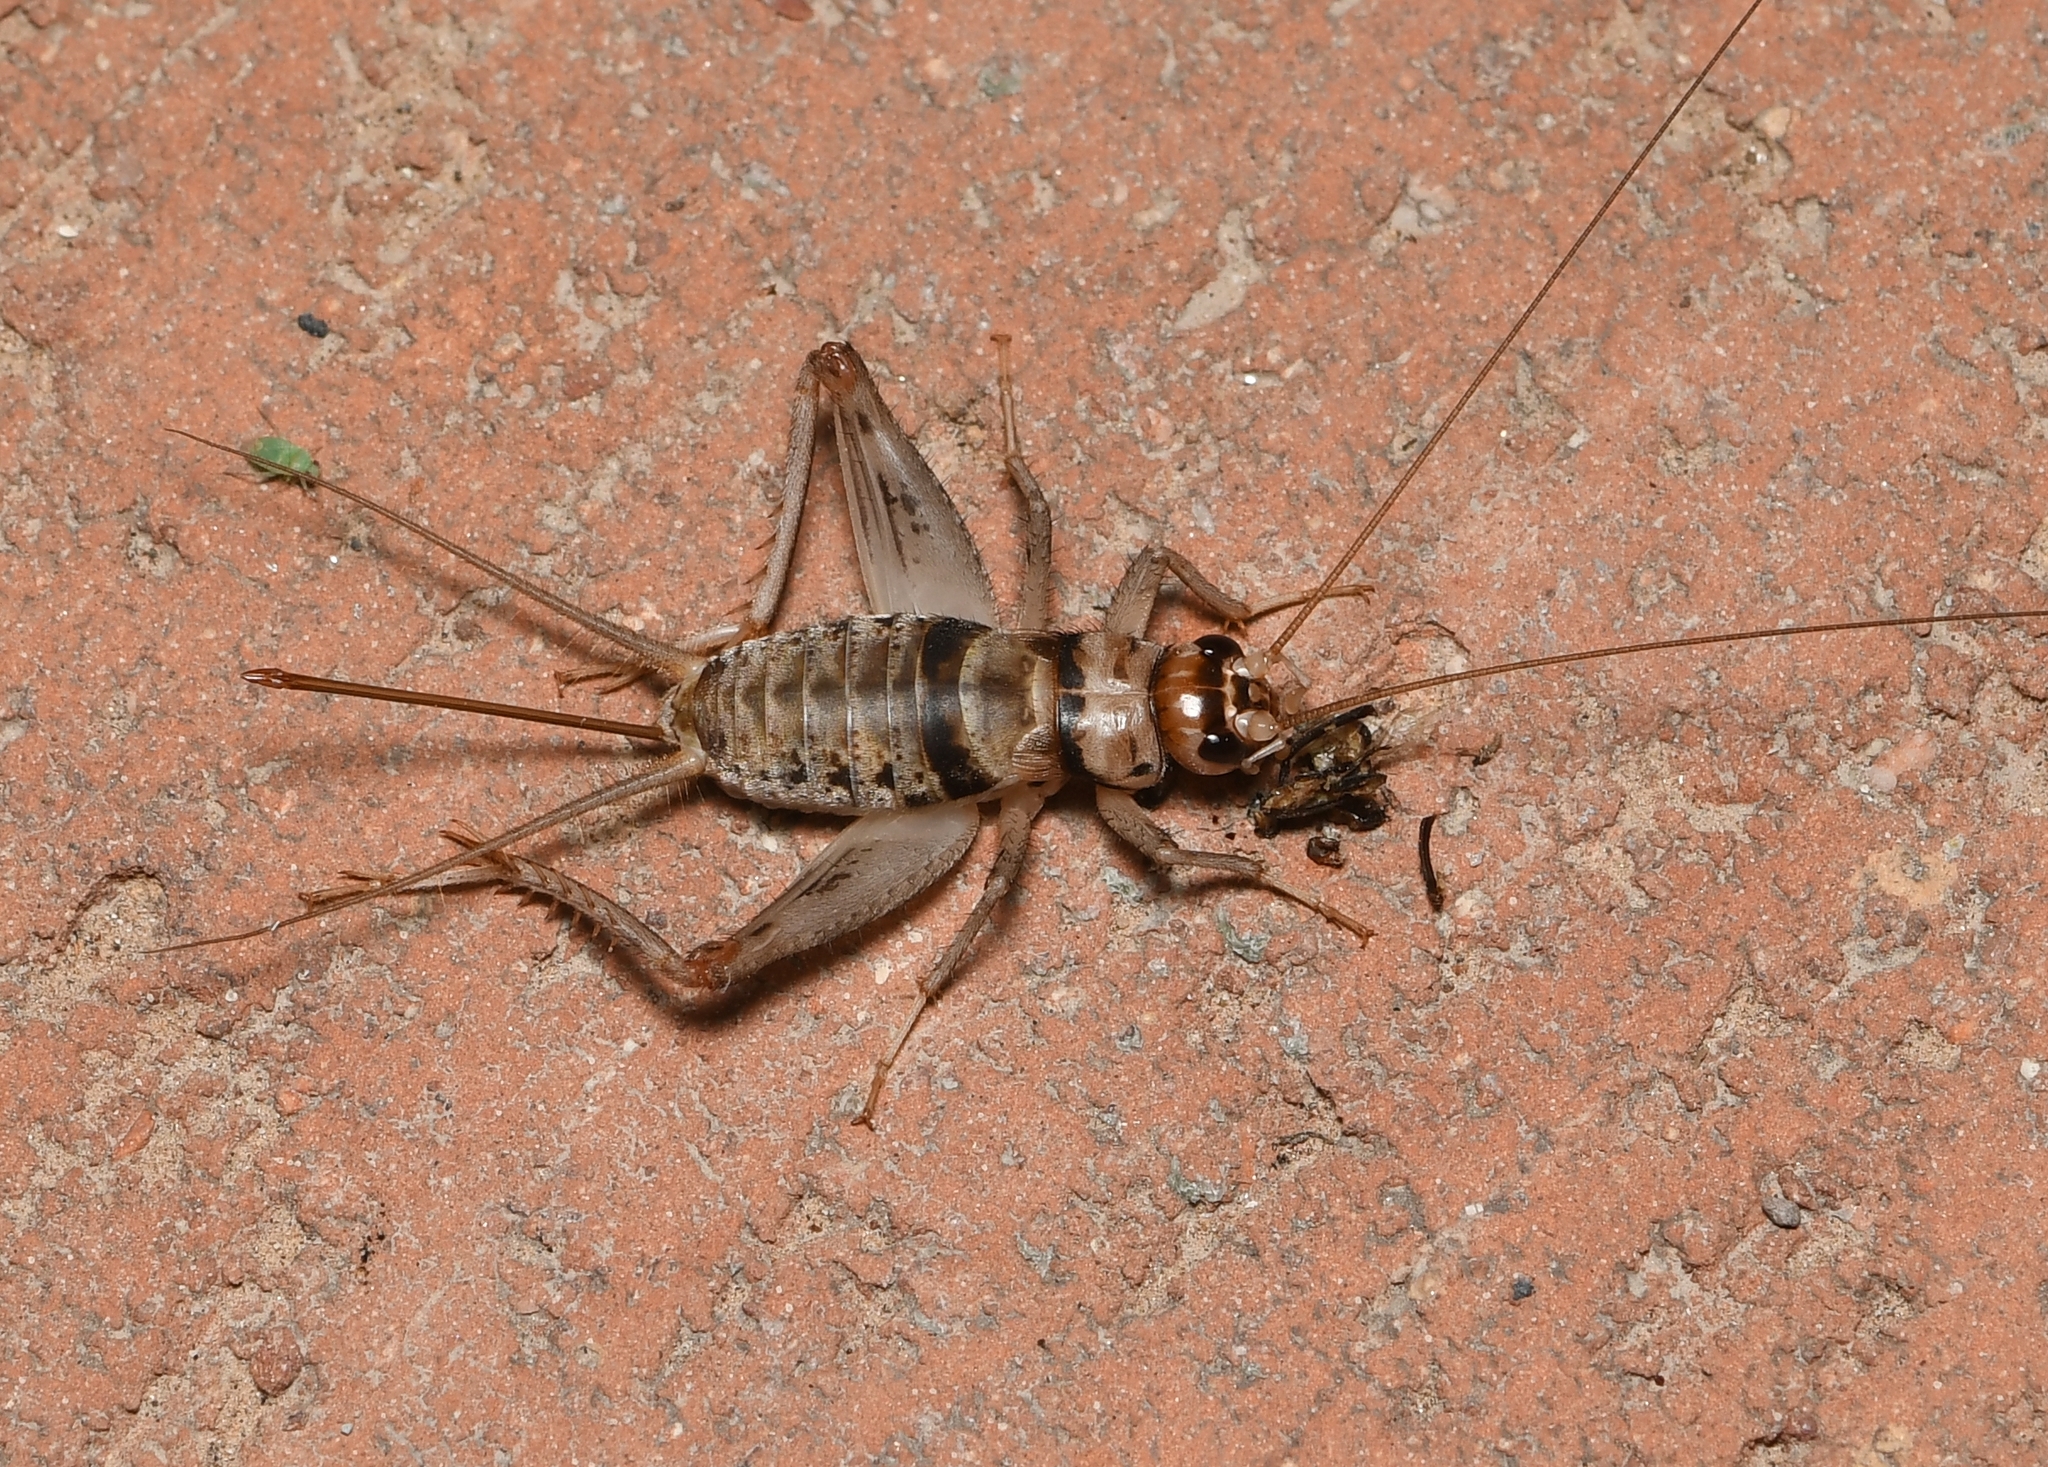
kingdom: Animalia
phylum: Arthropoda
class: Insecta
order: Orthoptera
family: Gryllidae
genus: Gryllodes
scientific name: Gryllodes sigillatus
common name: Tropical house cricket
